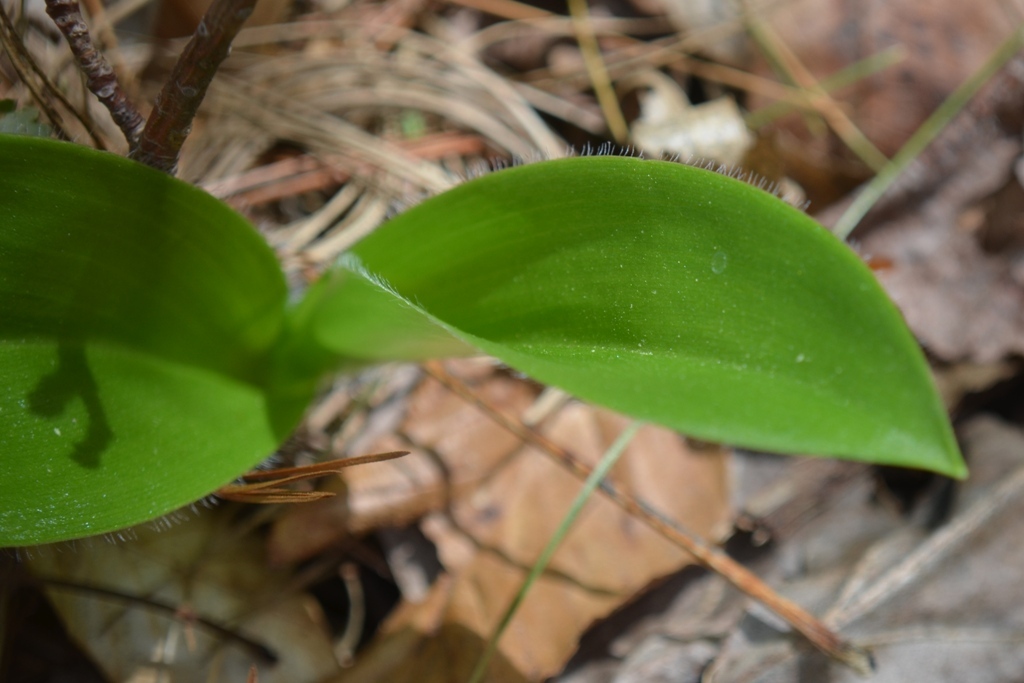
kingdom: Plantae
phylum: Tracheophyta
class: Liliopsida
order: Asparagales
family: Orchidaceae
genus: Cypripedium
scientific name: Cypripedium acaule
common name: Pink lady's-slipper
